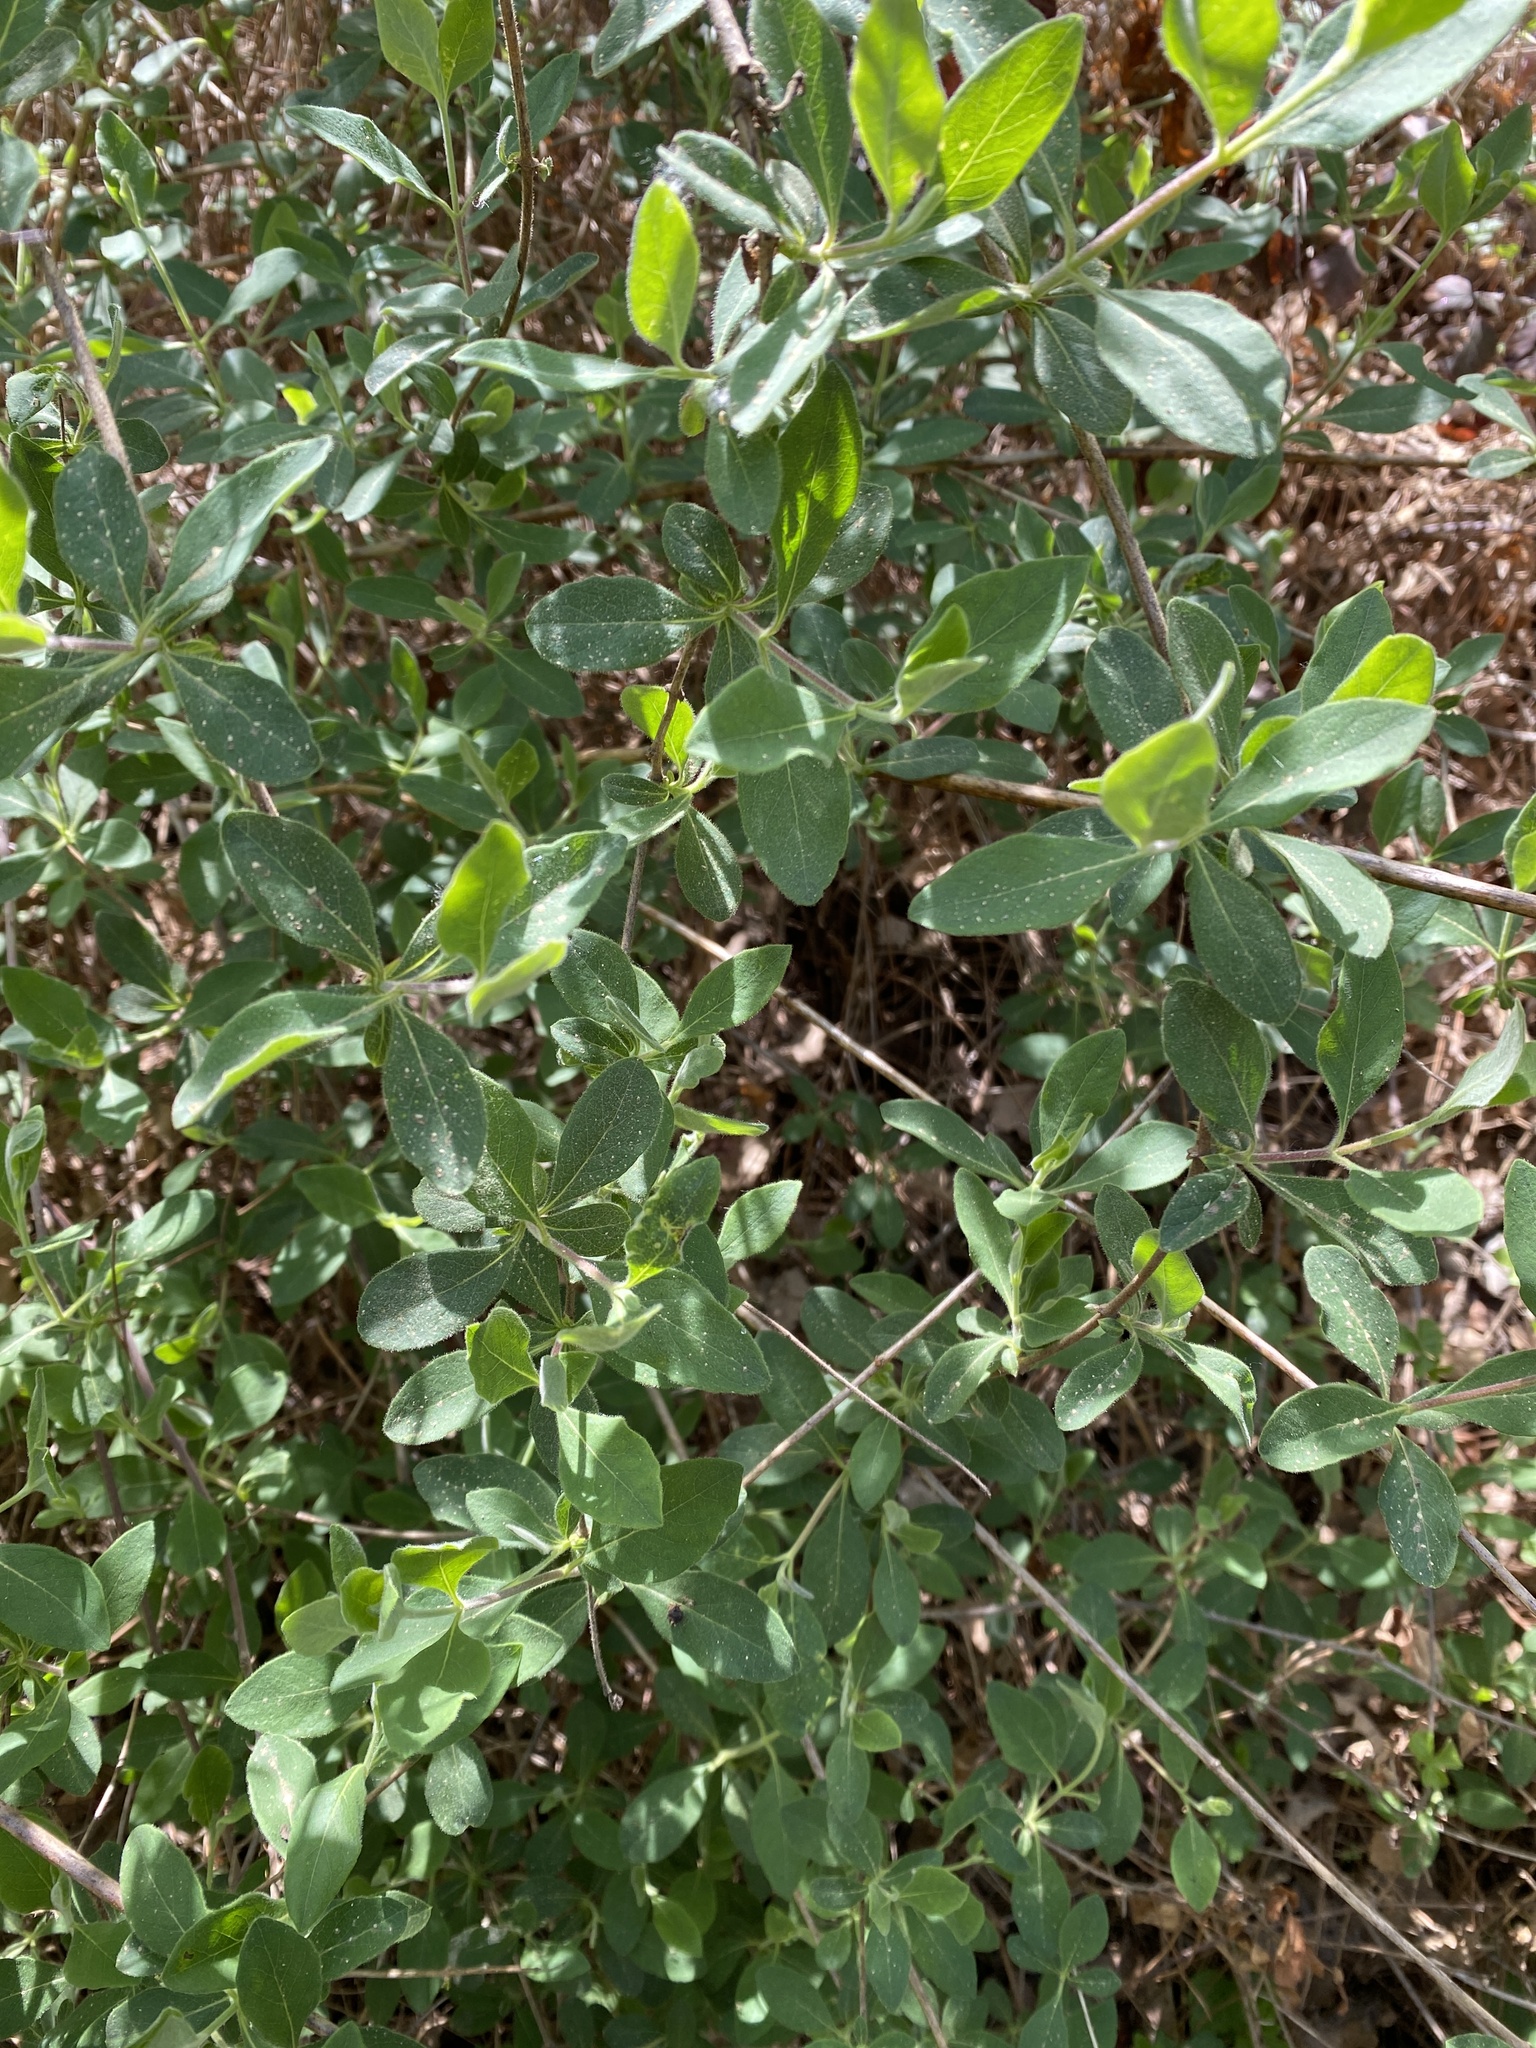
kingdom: Plantae
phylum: Tracheophyta
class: Magnoliopsida
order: Dipsacales
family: Caprifoliaceae
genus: Lonicera
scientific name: Lonicera etrusca
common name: Etruscan honeysuckle
